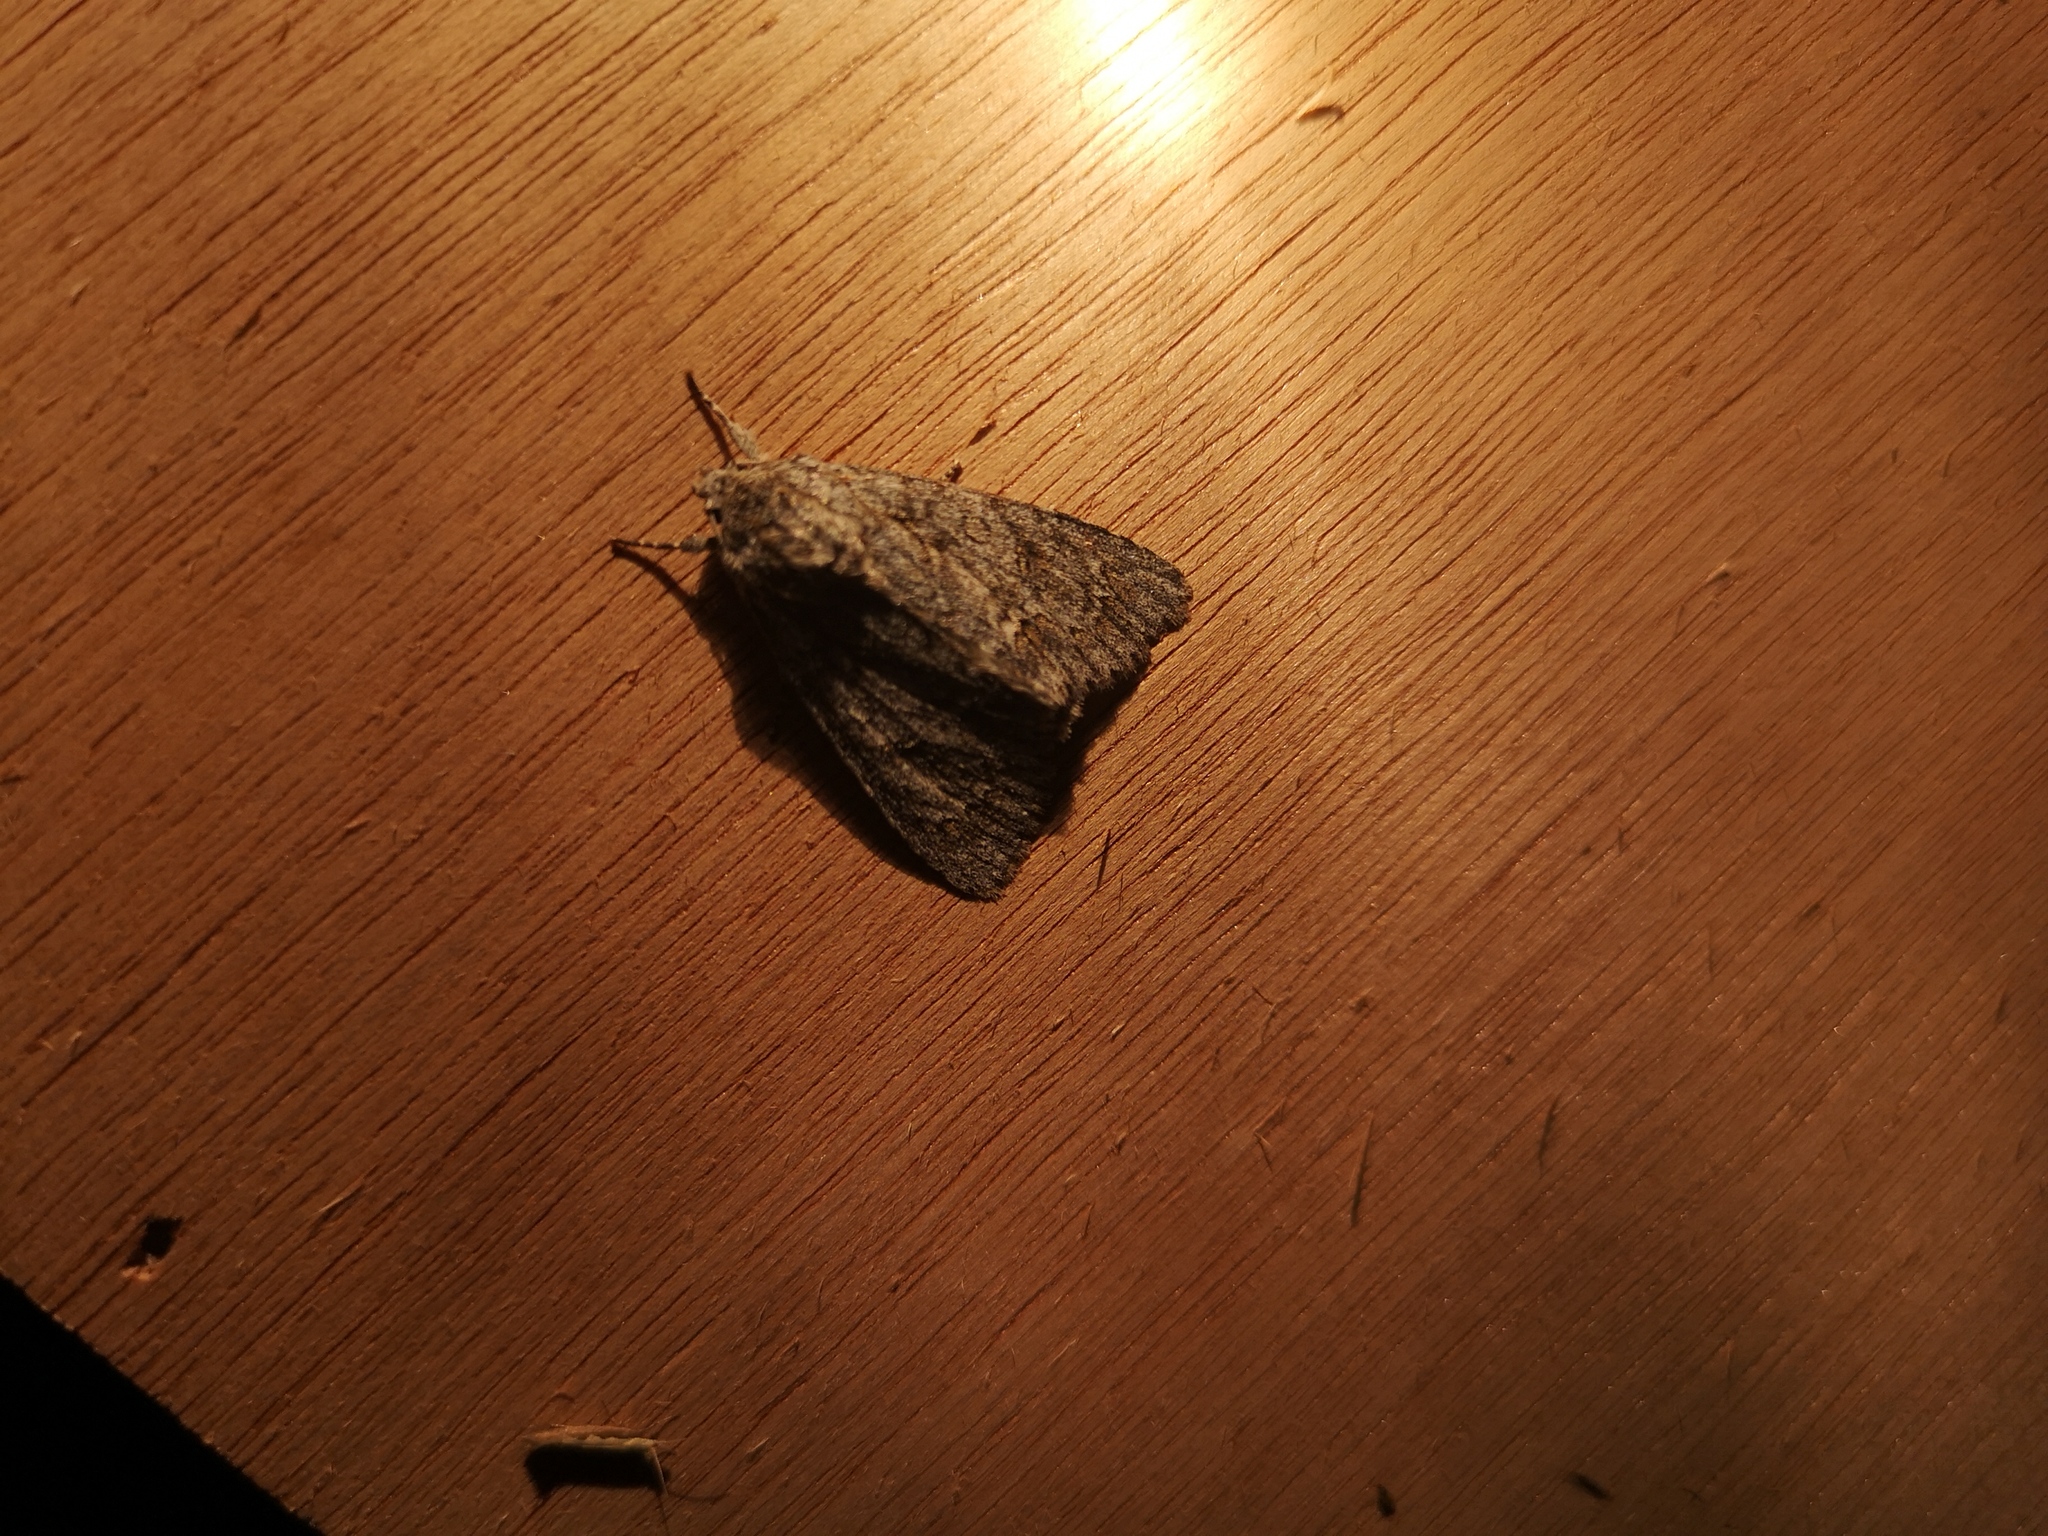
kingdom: Animalia
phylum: Arthropoda
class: Insecta
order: Lepidoptera
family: Noctuidae
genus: Acronicta
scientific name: Acronicta aceris
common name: Sycamore
